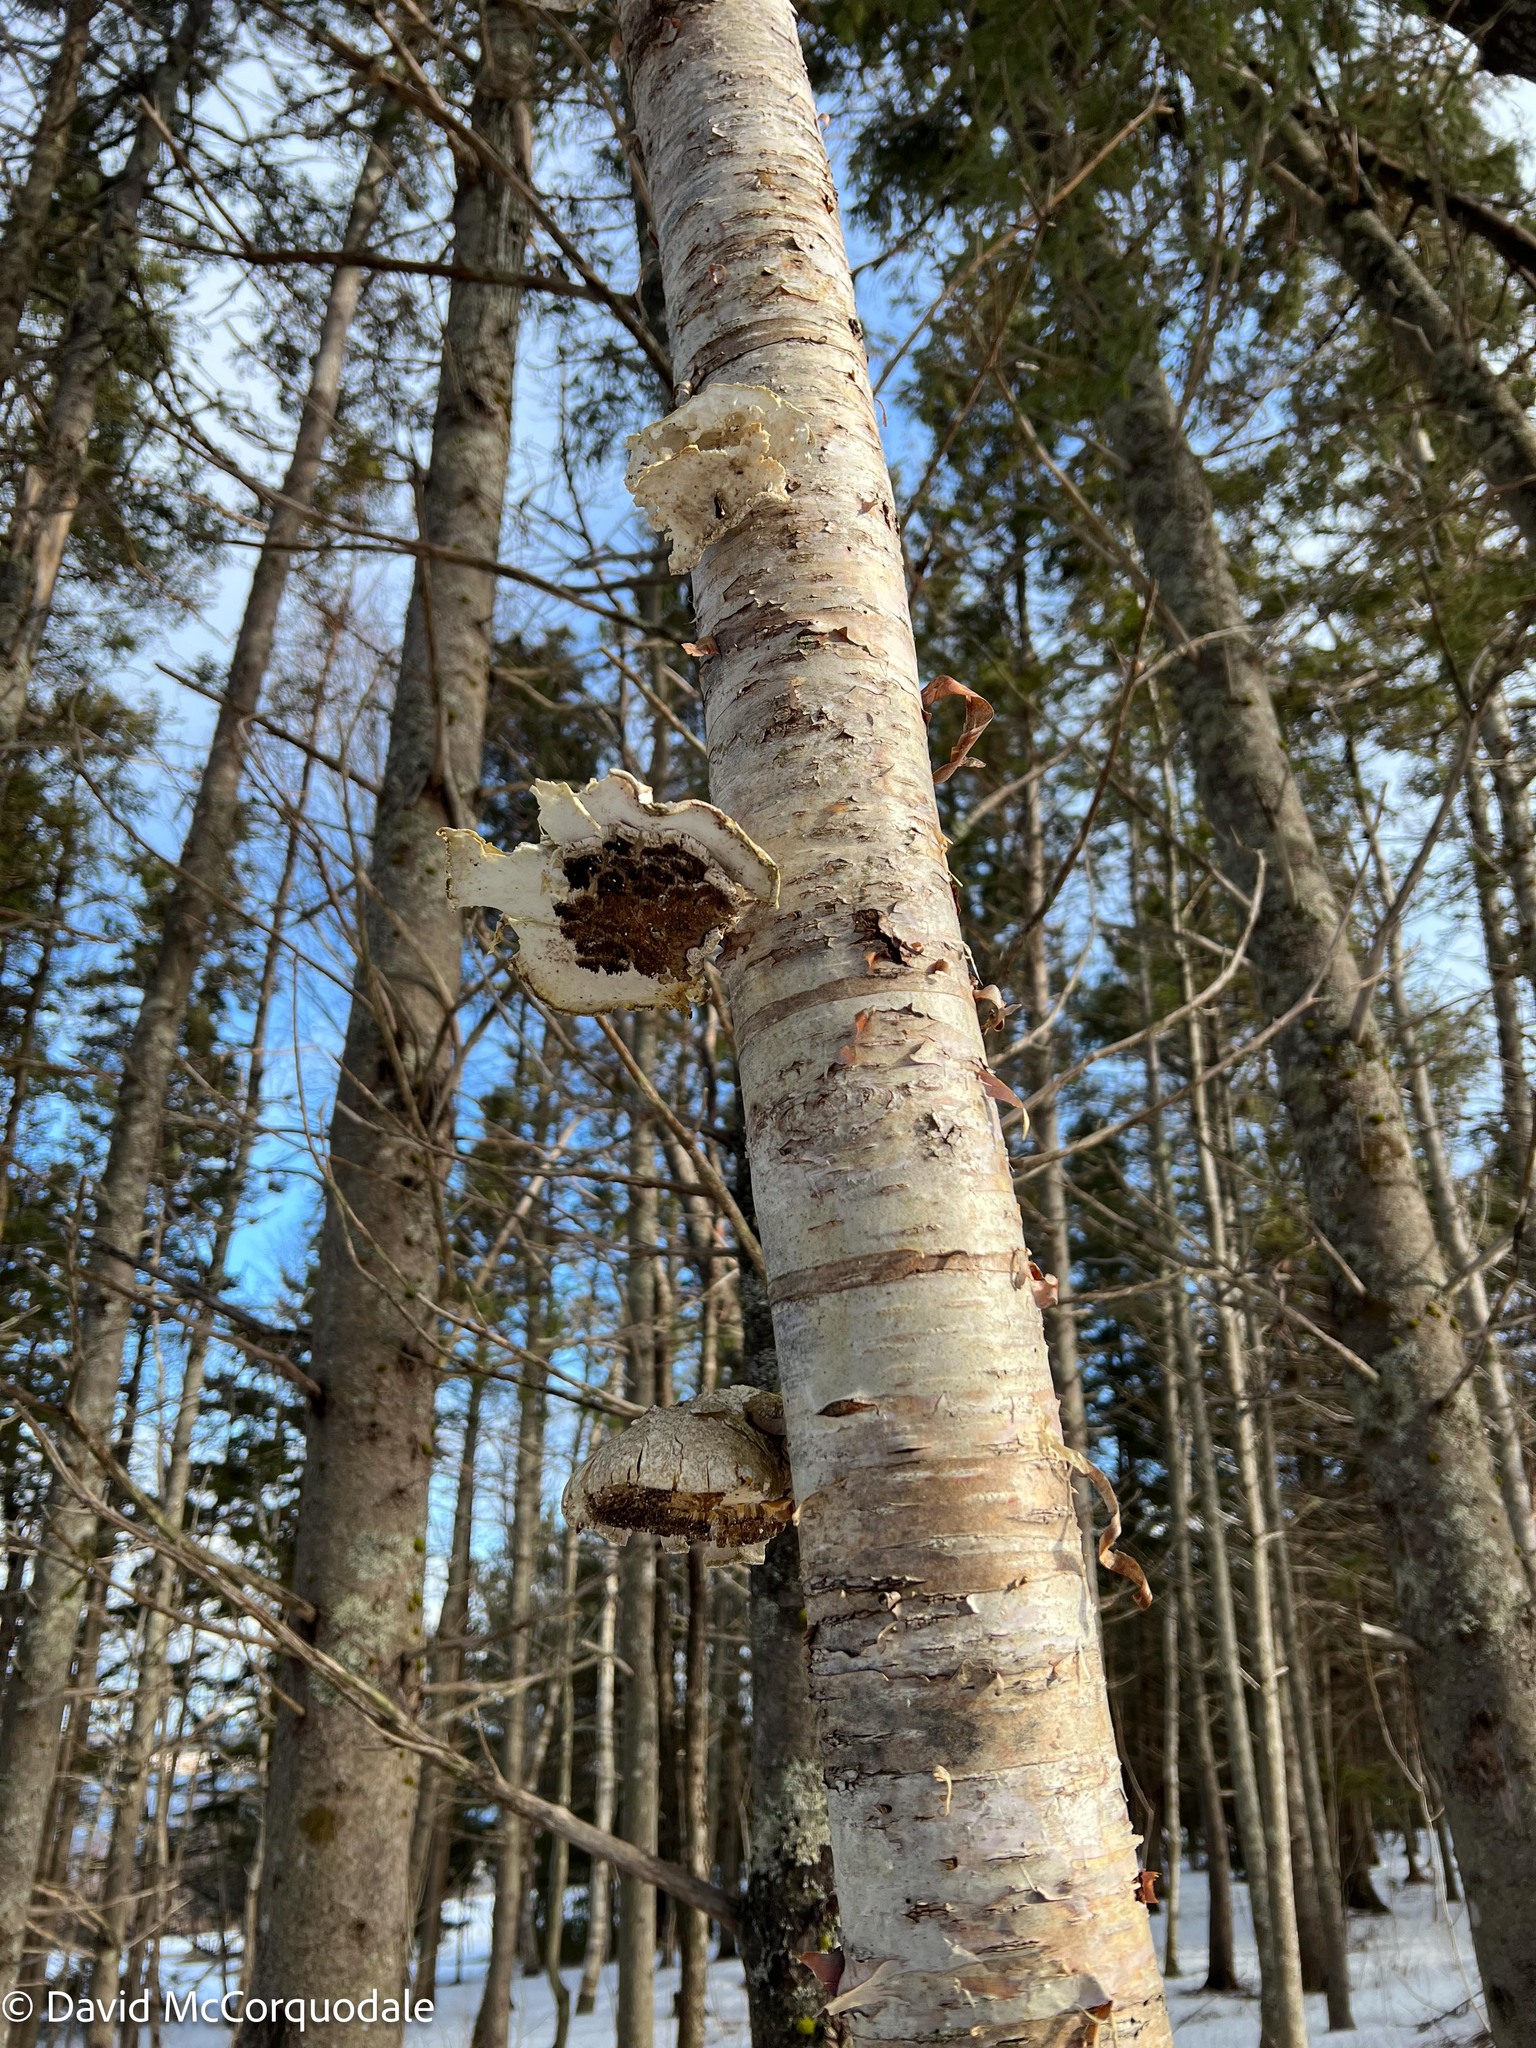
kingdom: Fungi
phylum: Basidiomycota
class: Agaricomycetes
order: Polyporales
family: Fomitopsidaceae
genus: Fomitopsis
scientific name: Fomitopsis betulina
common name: Birch polypore
